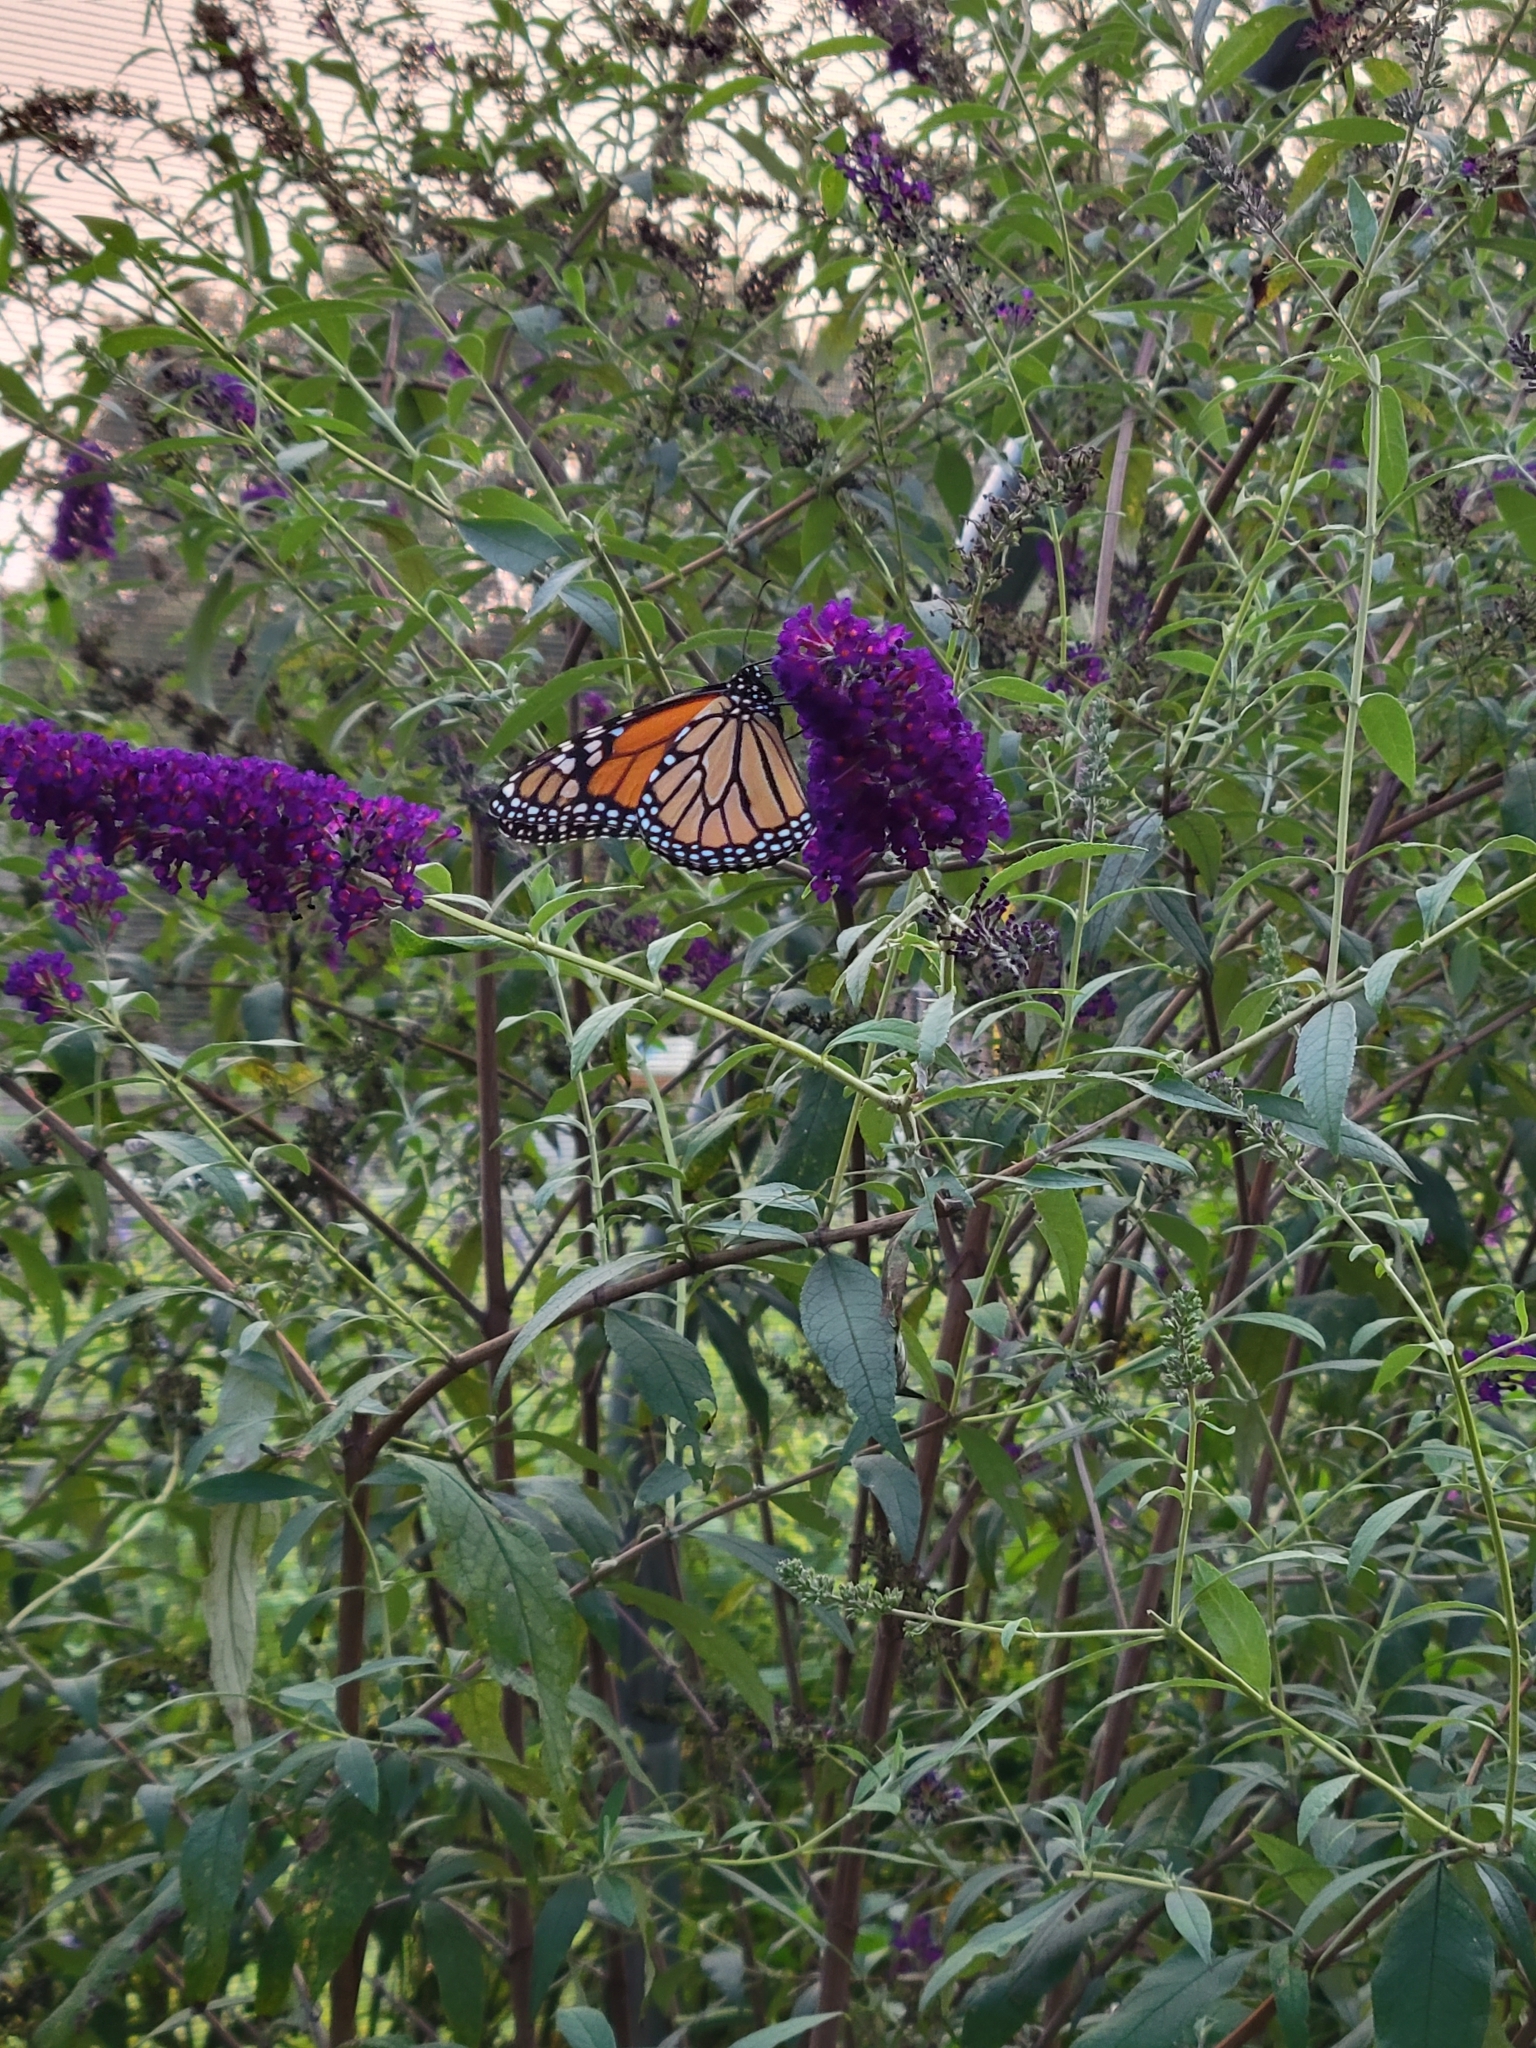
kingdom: Animalia
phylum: Arthropoda
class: Insecta
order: Lepidoptera
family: Nymphalidae
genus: Danaus
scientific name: Danaus plexippus
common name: Monarch
